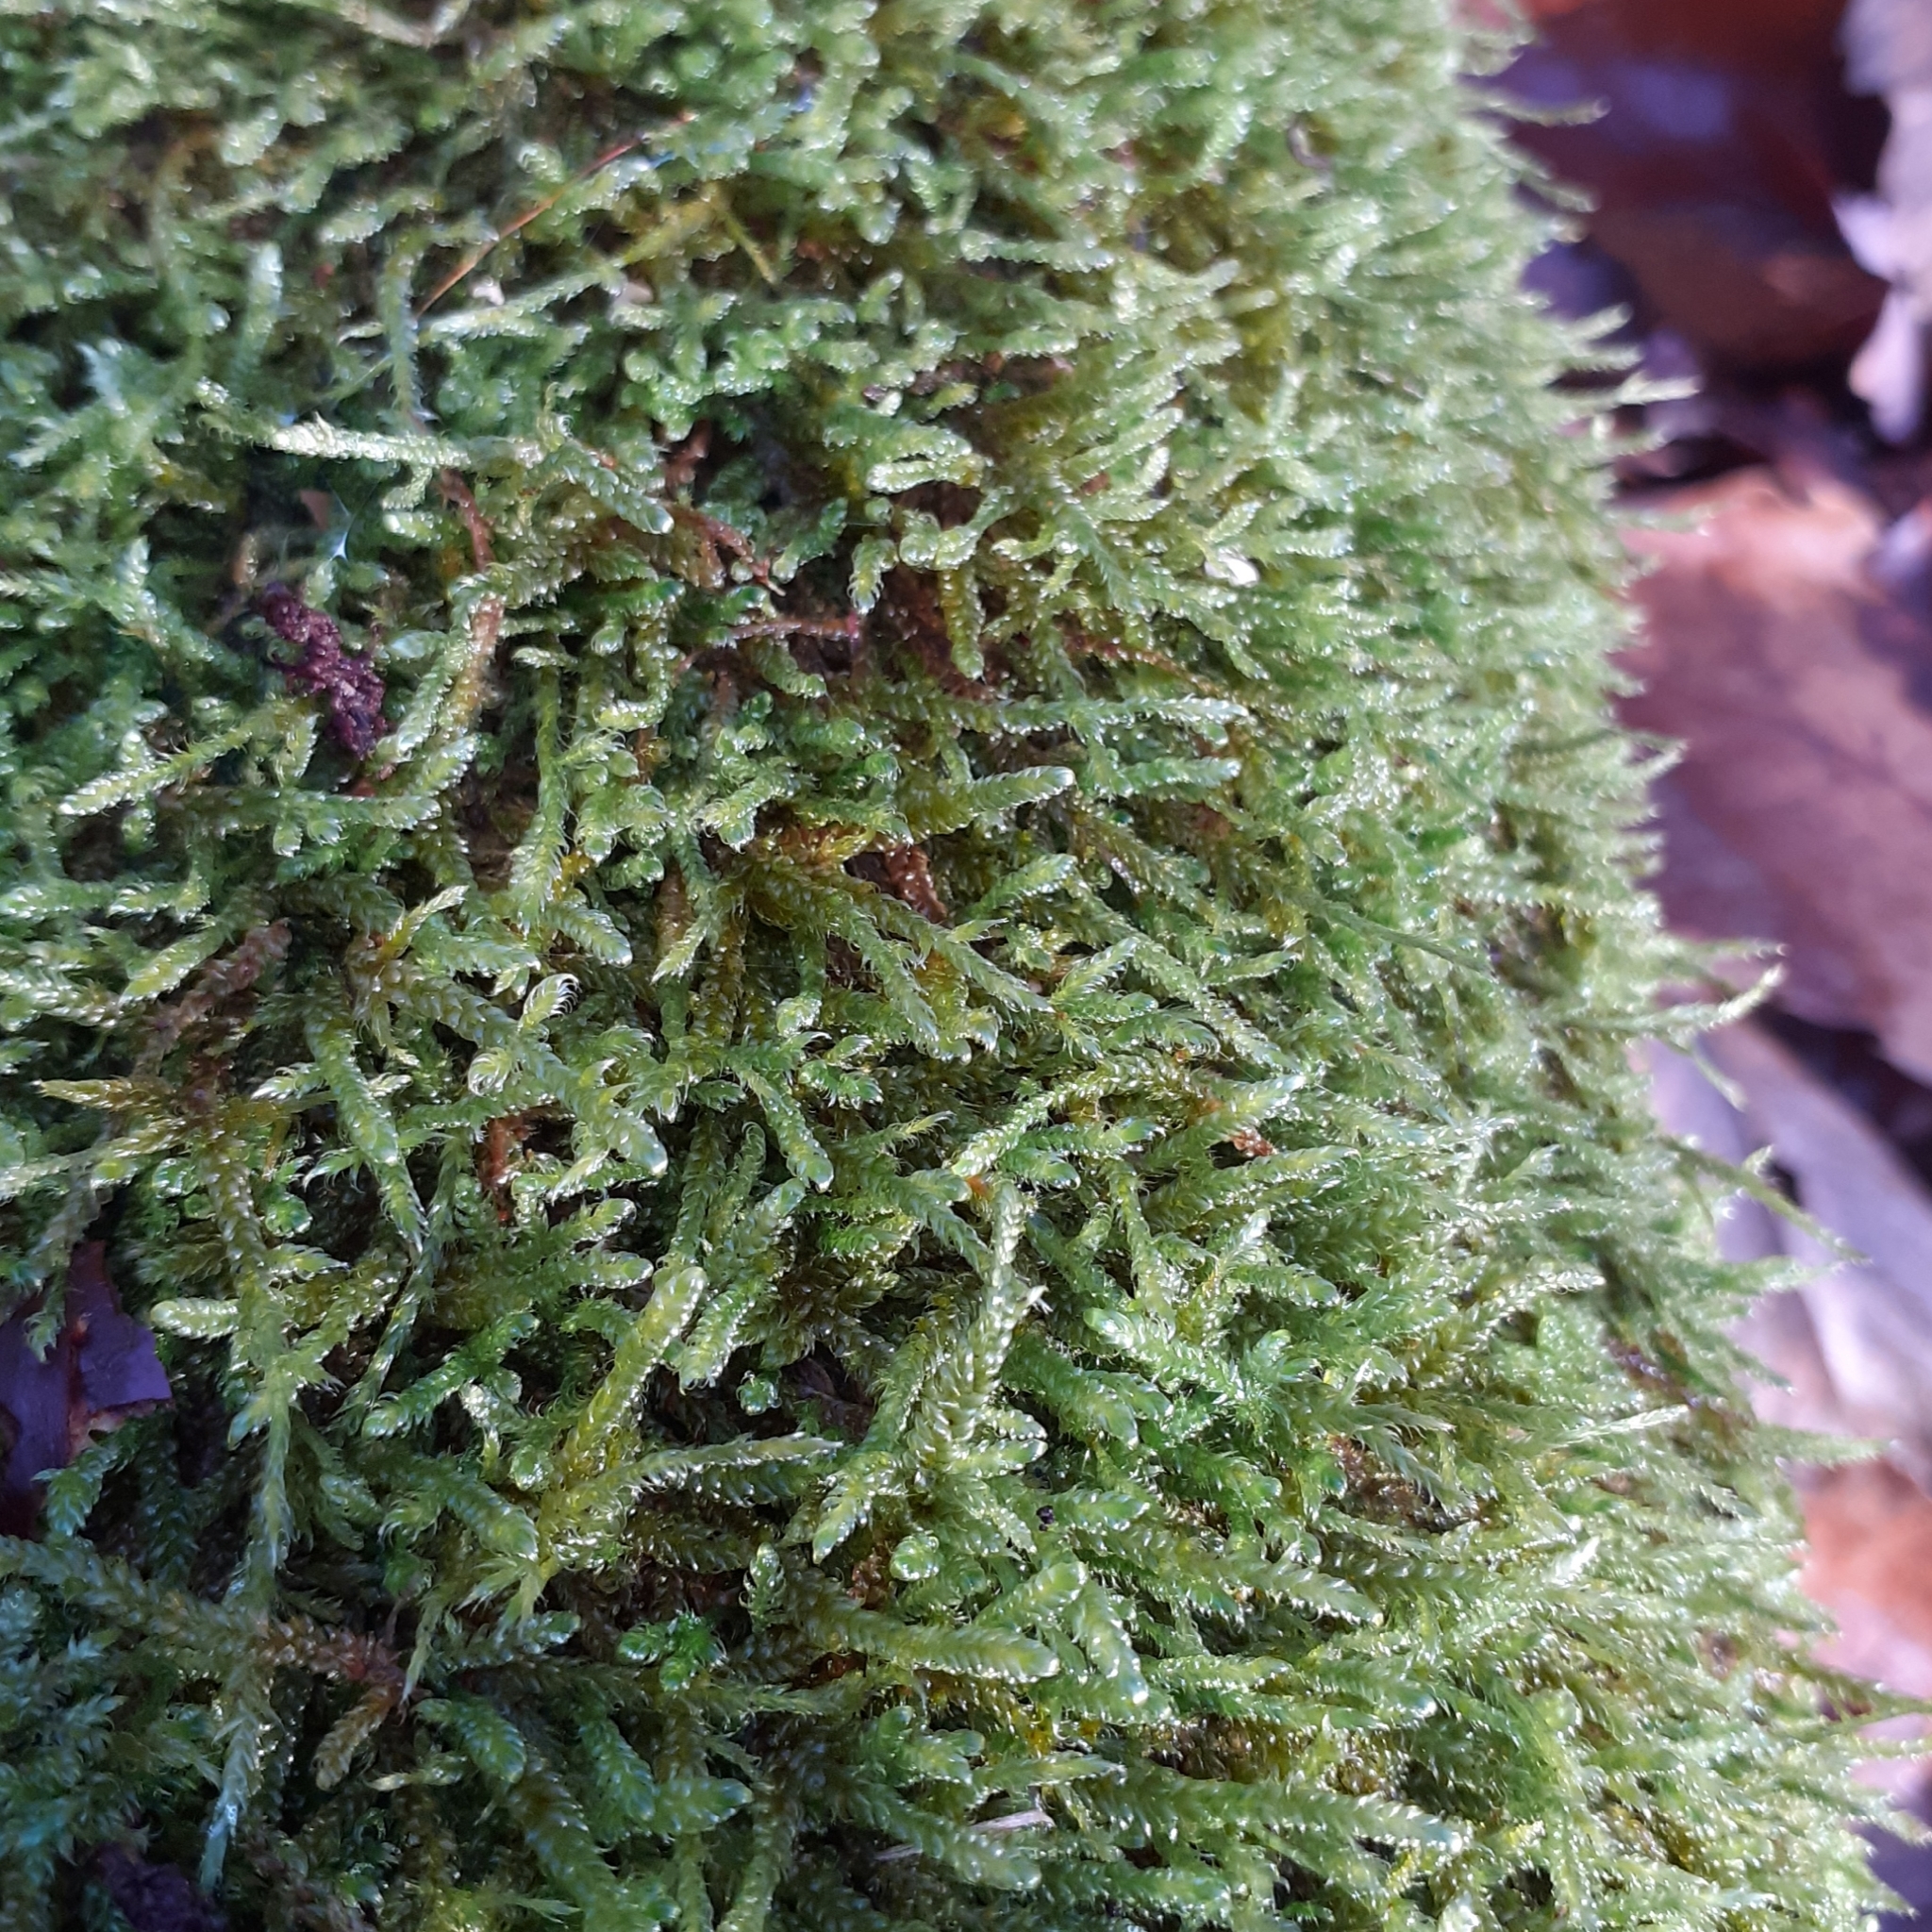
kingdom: Plantae
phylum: Bryophyta
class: Bryopsida
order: Hypnales
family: Hypnaceae
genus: Hypnum
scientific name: Hypnum cupressiforme
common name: Cypress-leaved plait-moss
